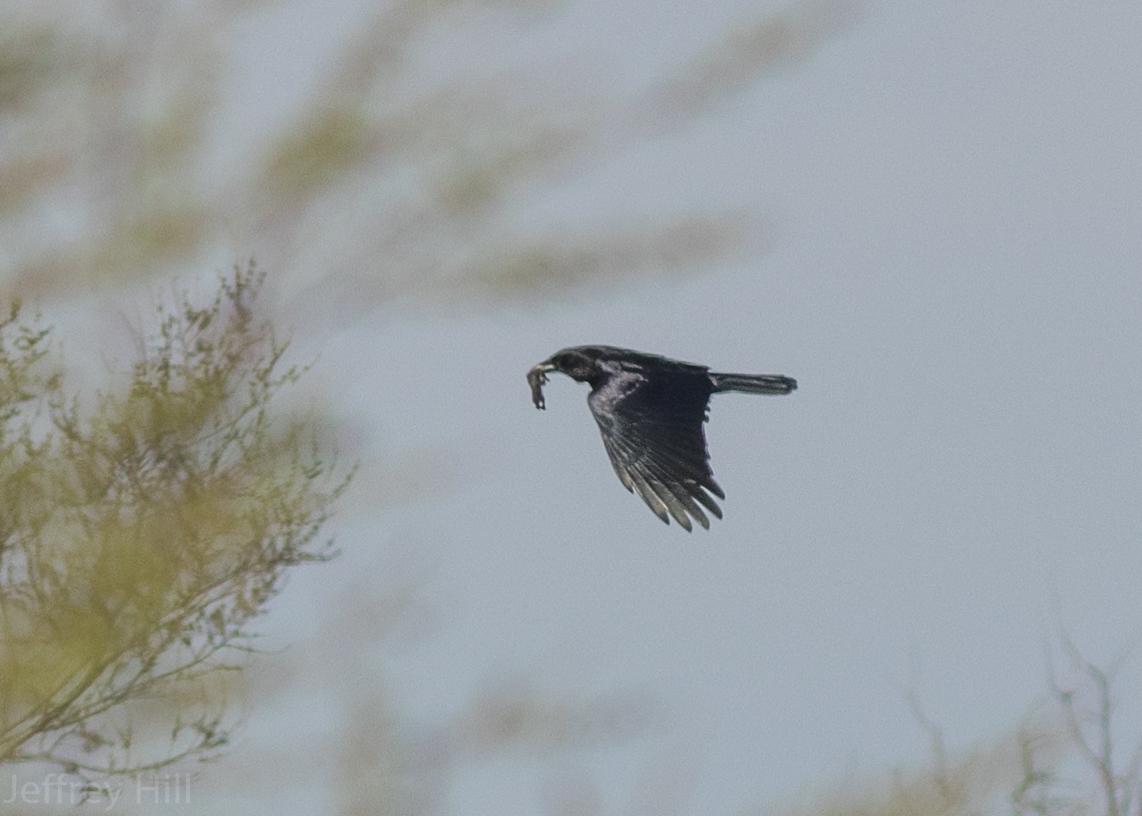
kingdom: Animalia
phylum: Chordata
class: Aves
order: Passeriformes
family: Corvidae
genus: Corvus
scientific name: Corvus brachyrhynchos
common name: American crow
